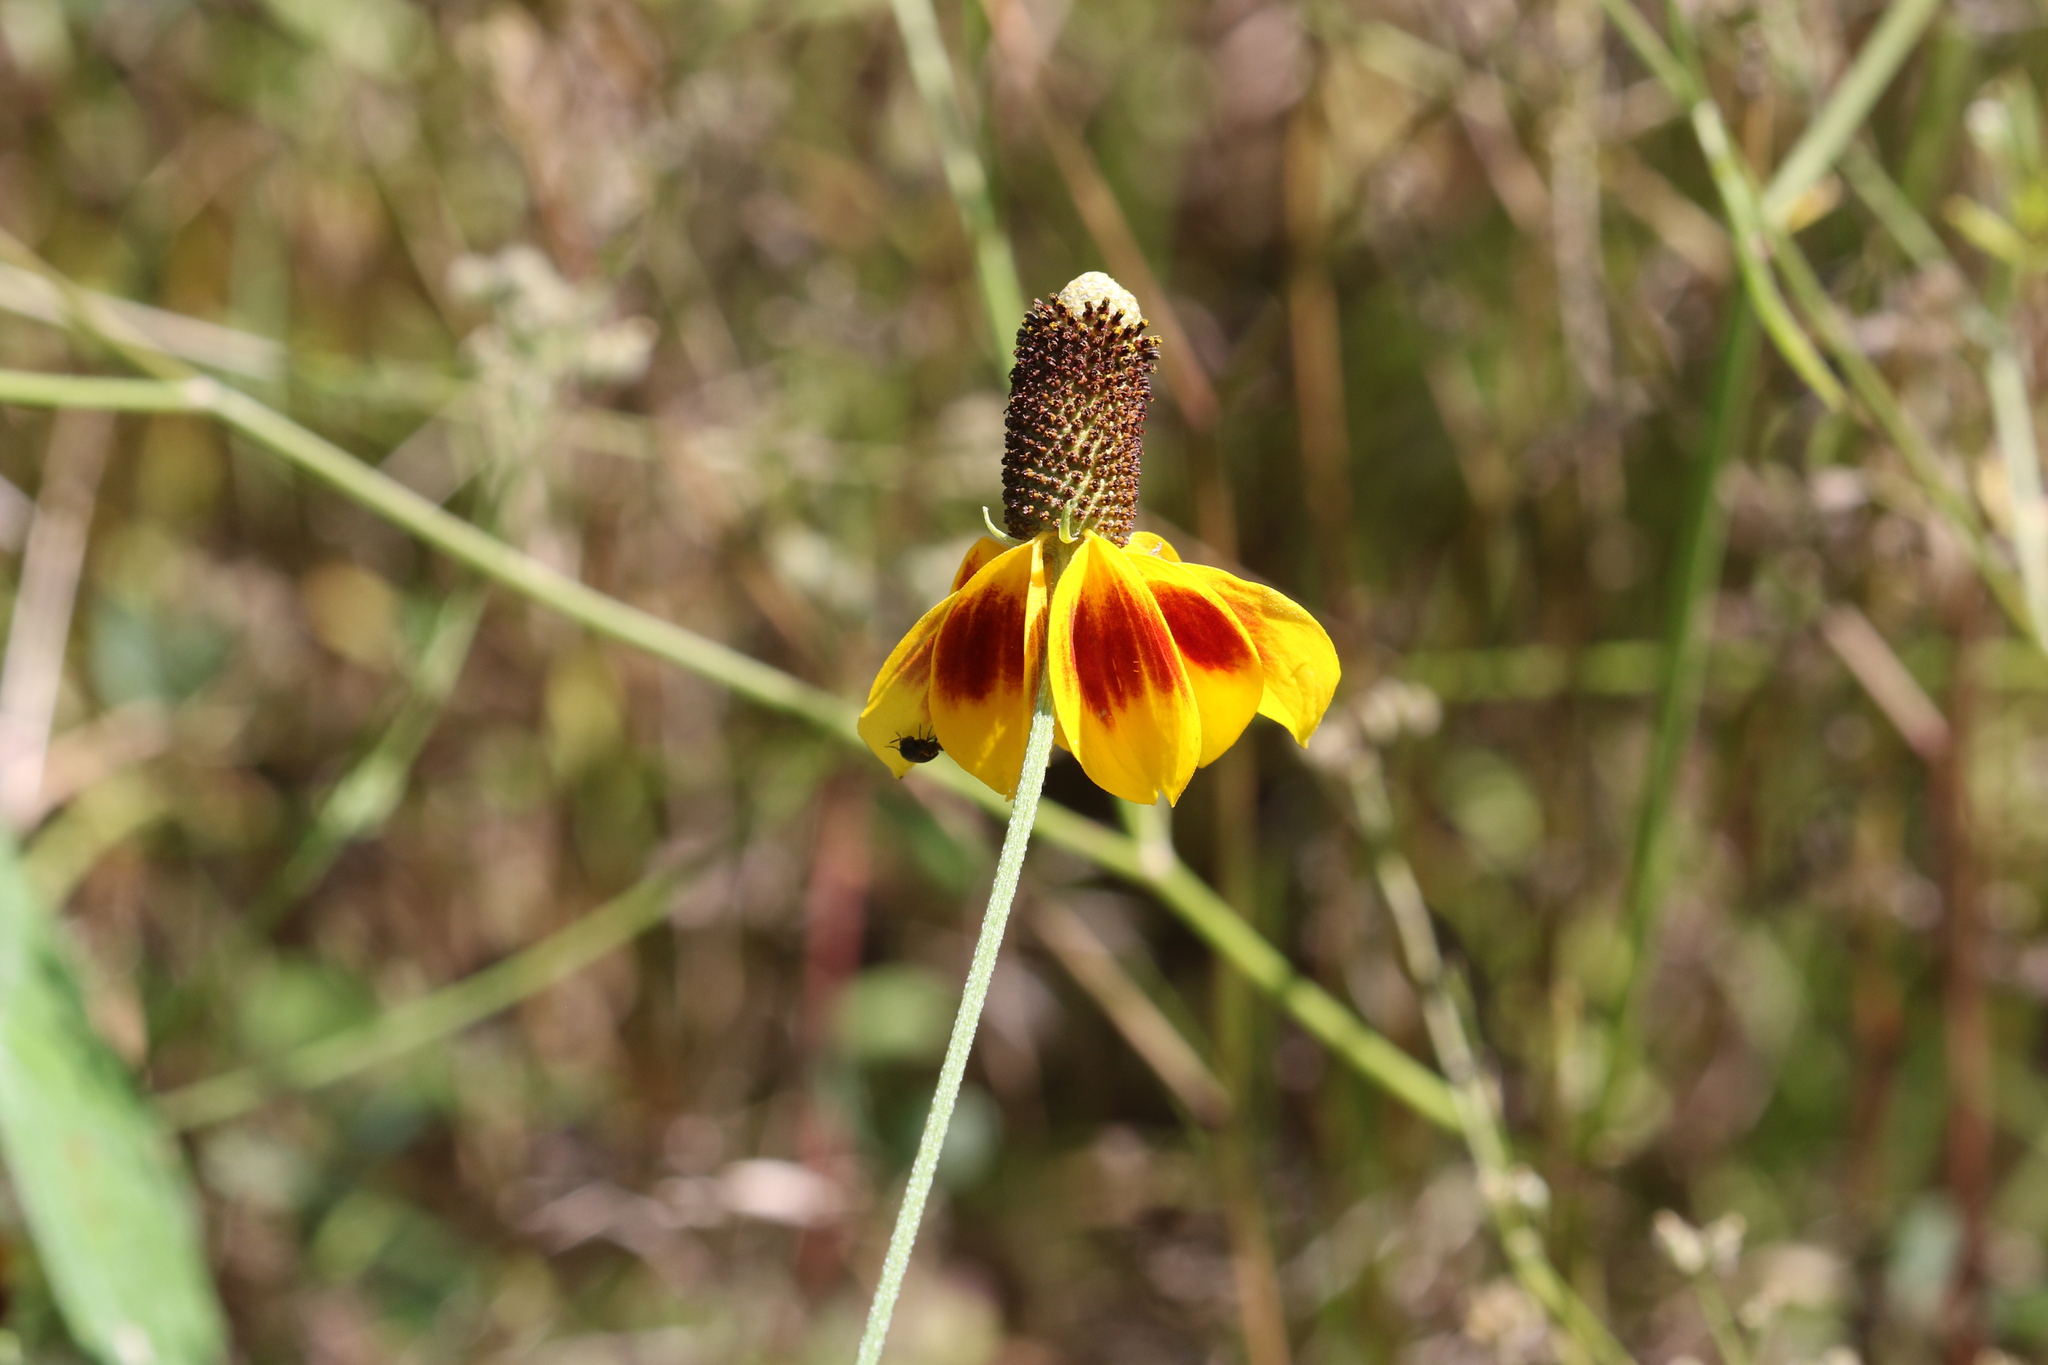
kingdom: Plantae
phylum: Tracheophyta
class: Magnoliopsida
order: Asterales
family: Asteraceae
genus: Ratibida
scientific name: Ratibida columnifera
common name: Prairie coneflower
